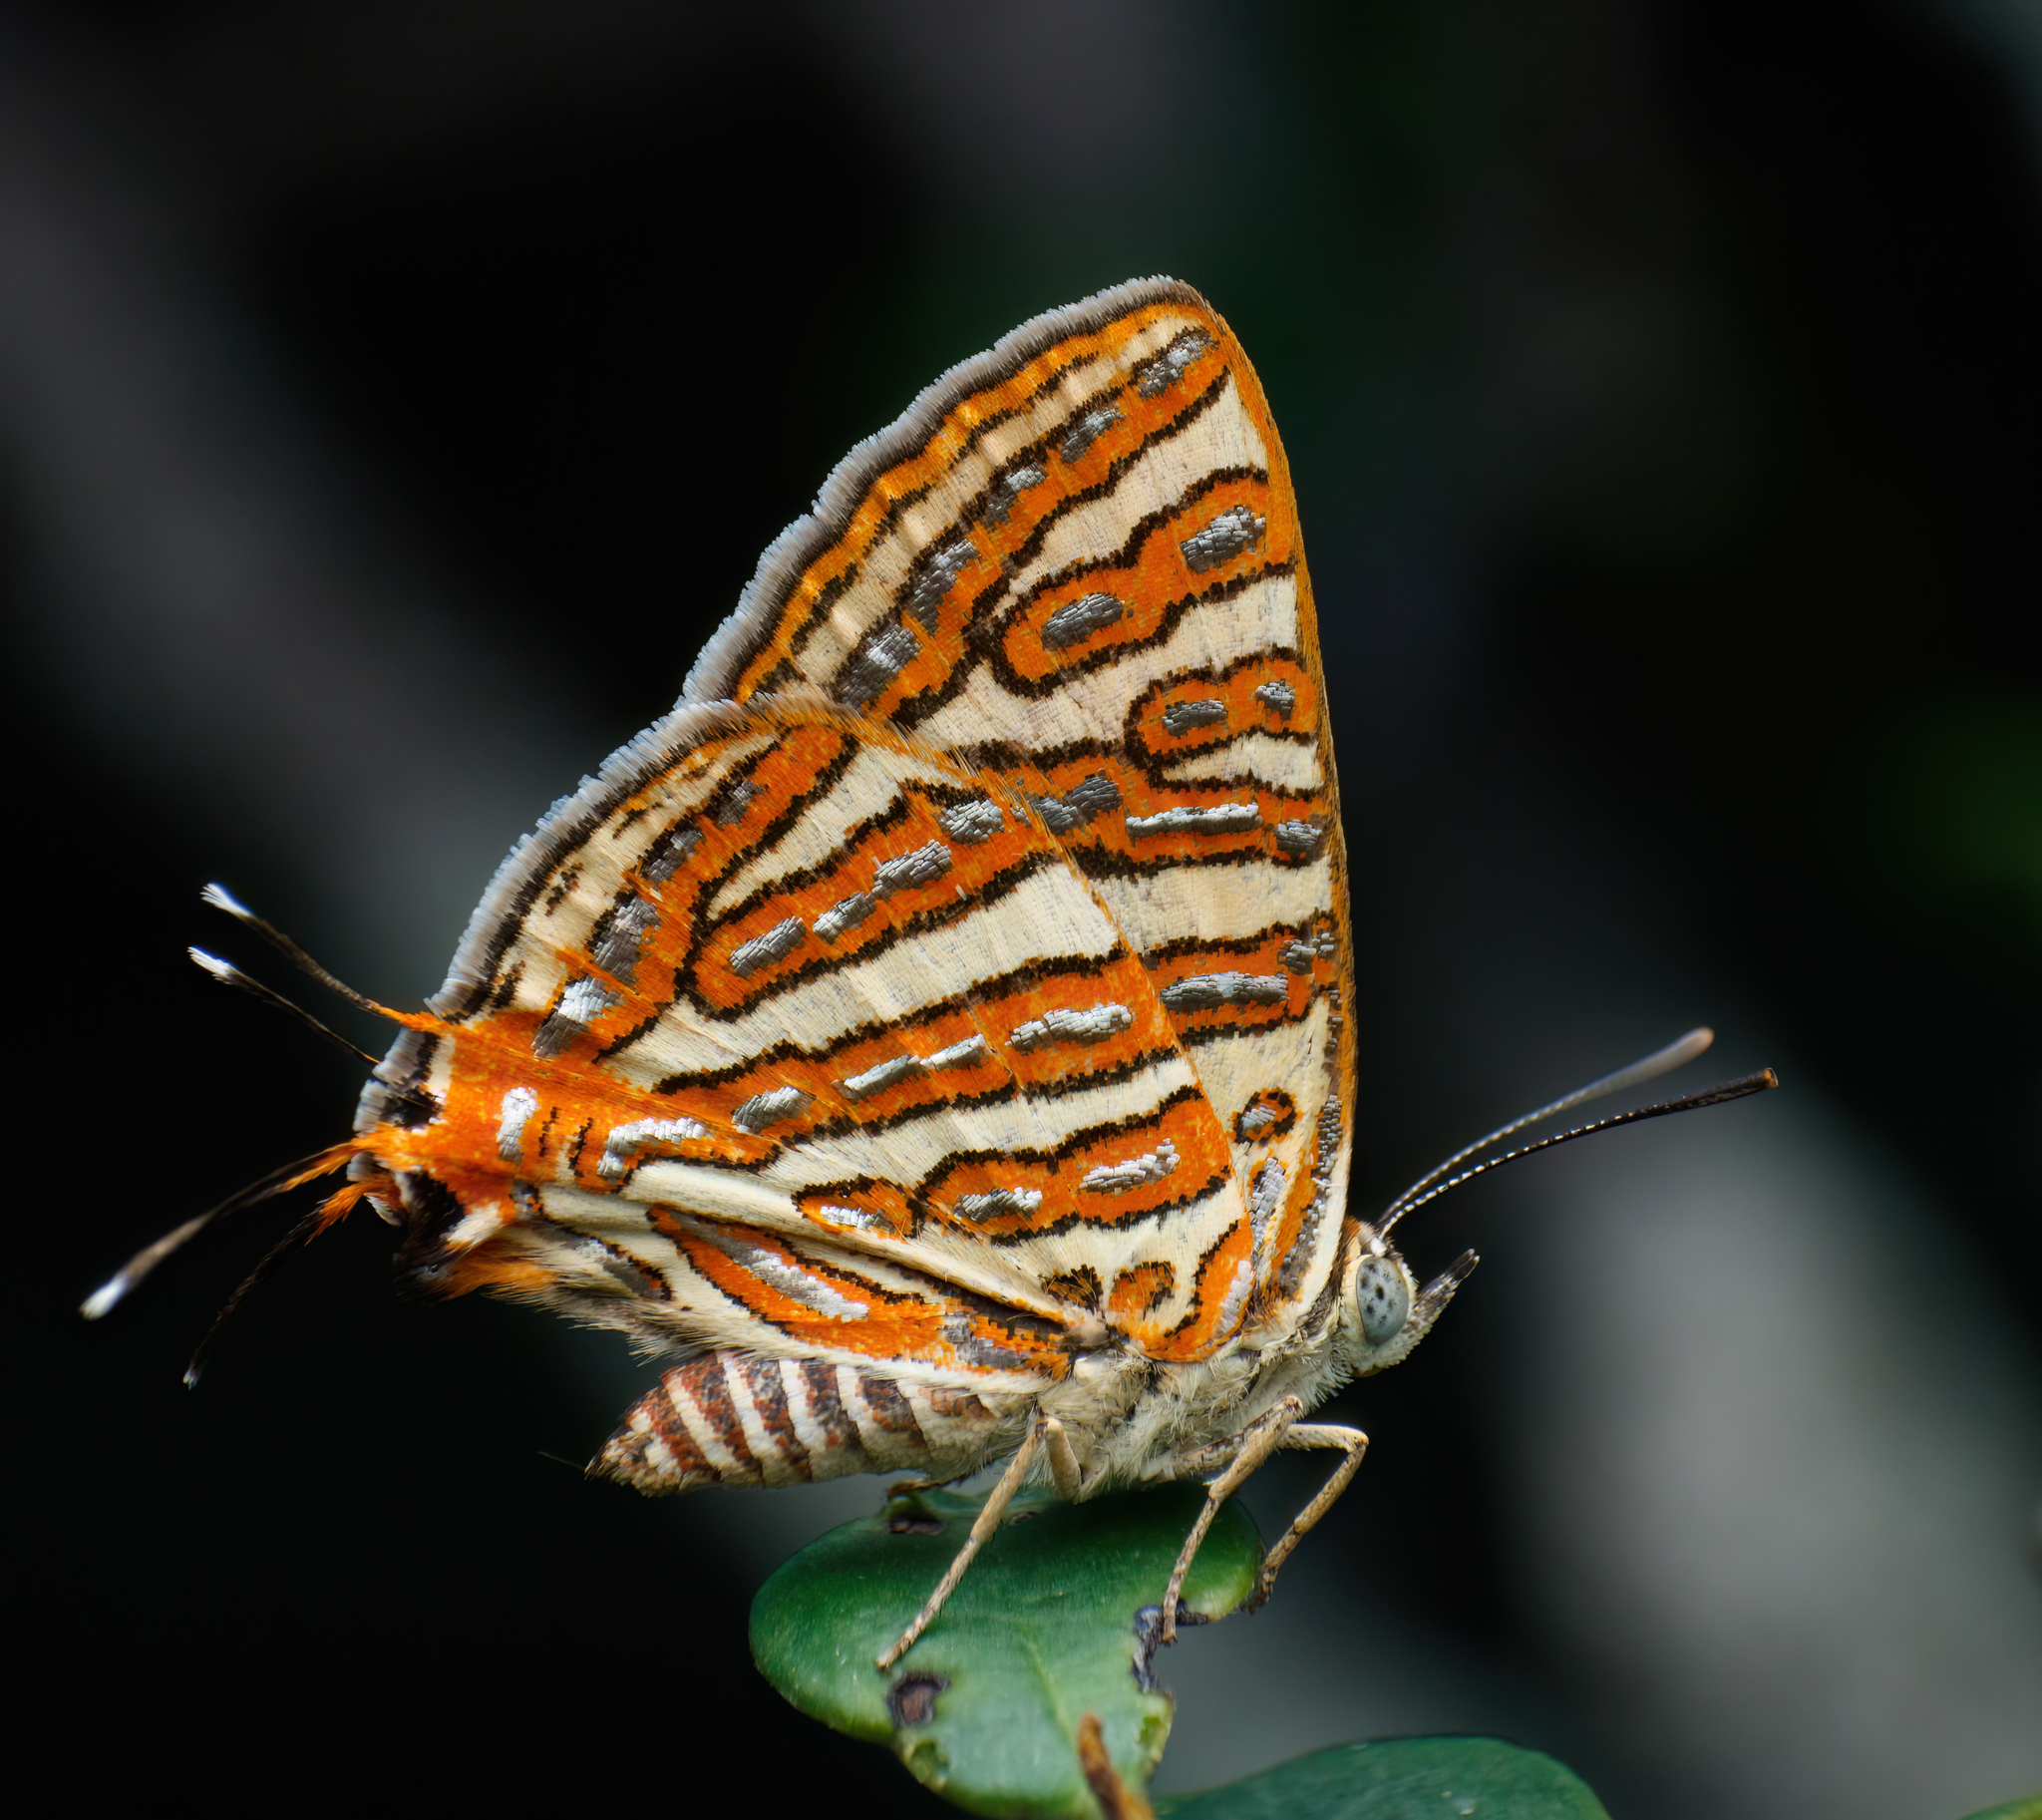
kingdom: Animalia
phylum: Arthropoda
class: Insecta
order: Lepidoptera
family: Lycaenidae
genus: Cigaritis
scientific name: Cigaritis vulcanus
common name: Common silverline
